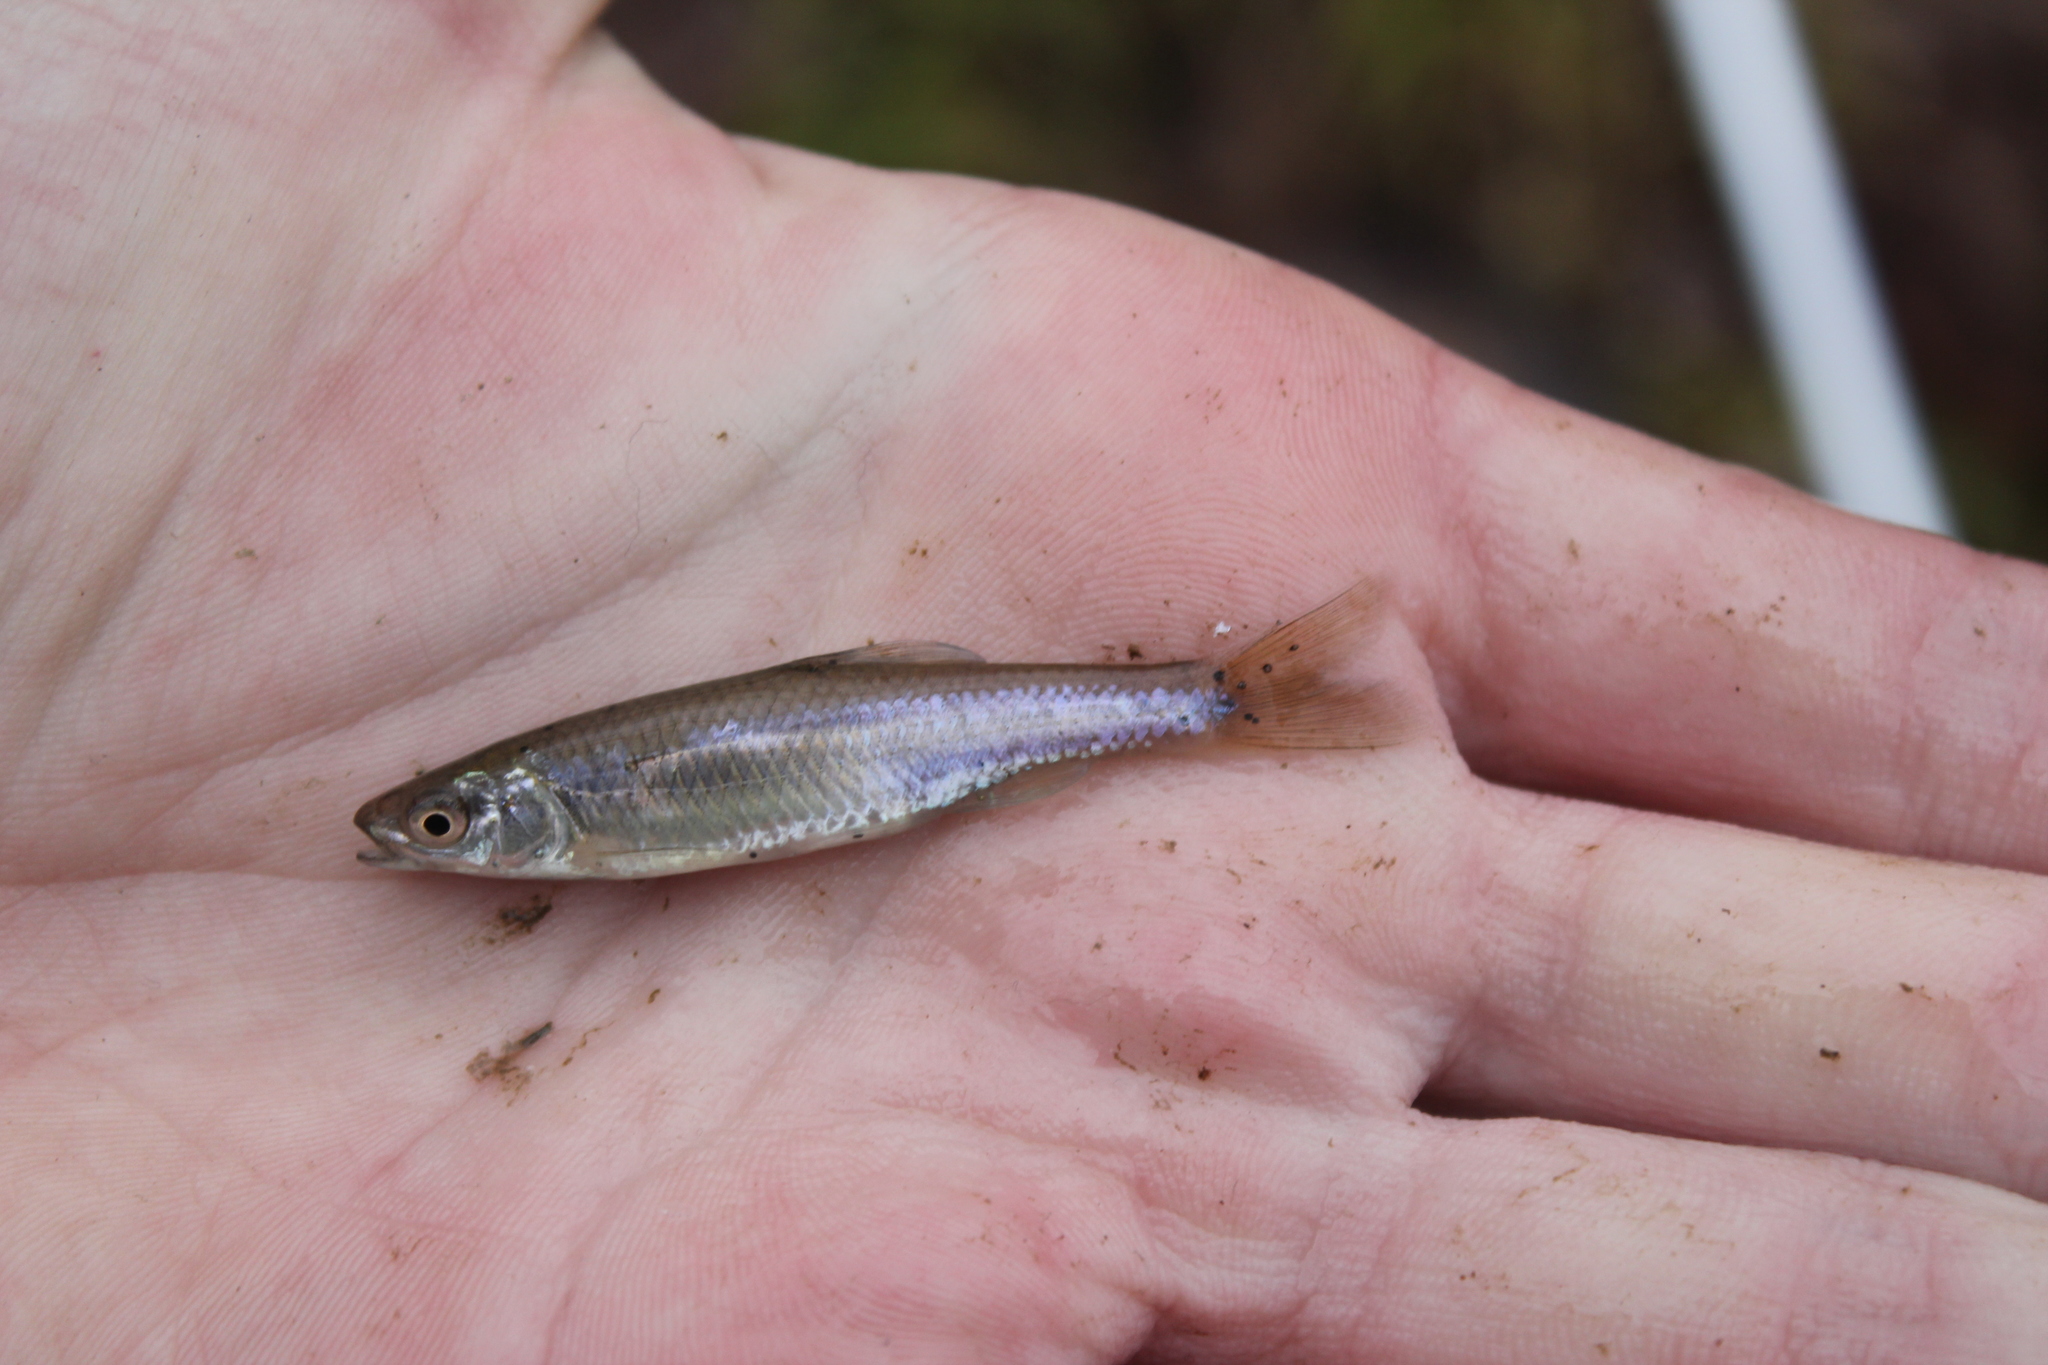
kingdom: Animalia
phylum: Chordata
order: Cypriniformes
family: Cyprinidae
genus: Cyprinella
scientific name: Cyprinella spiloptera
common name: Spotfin shiner
